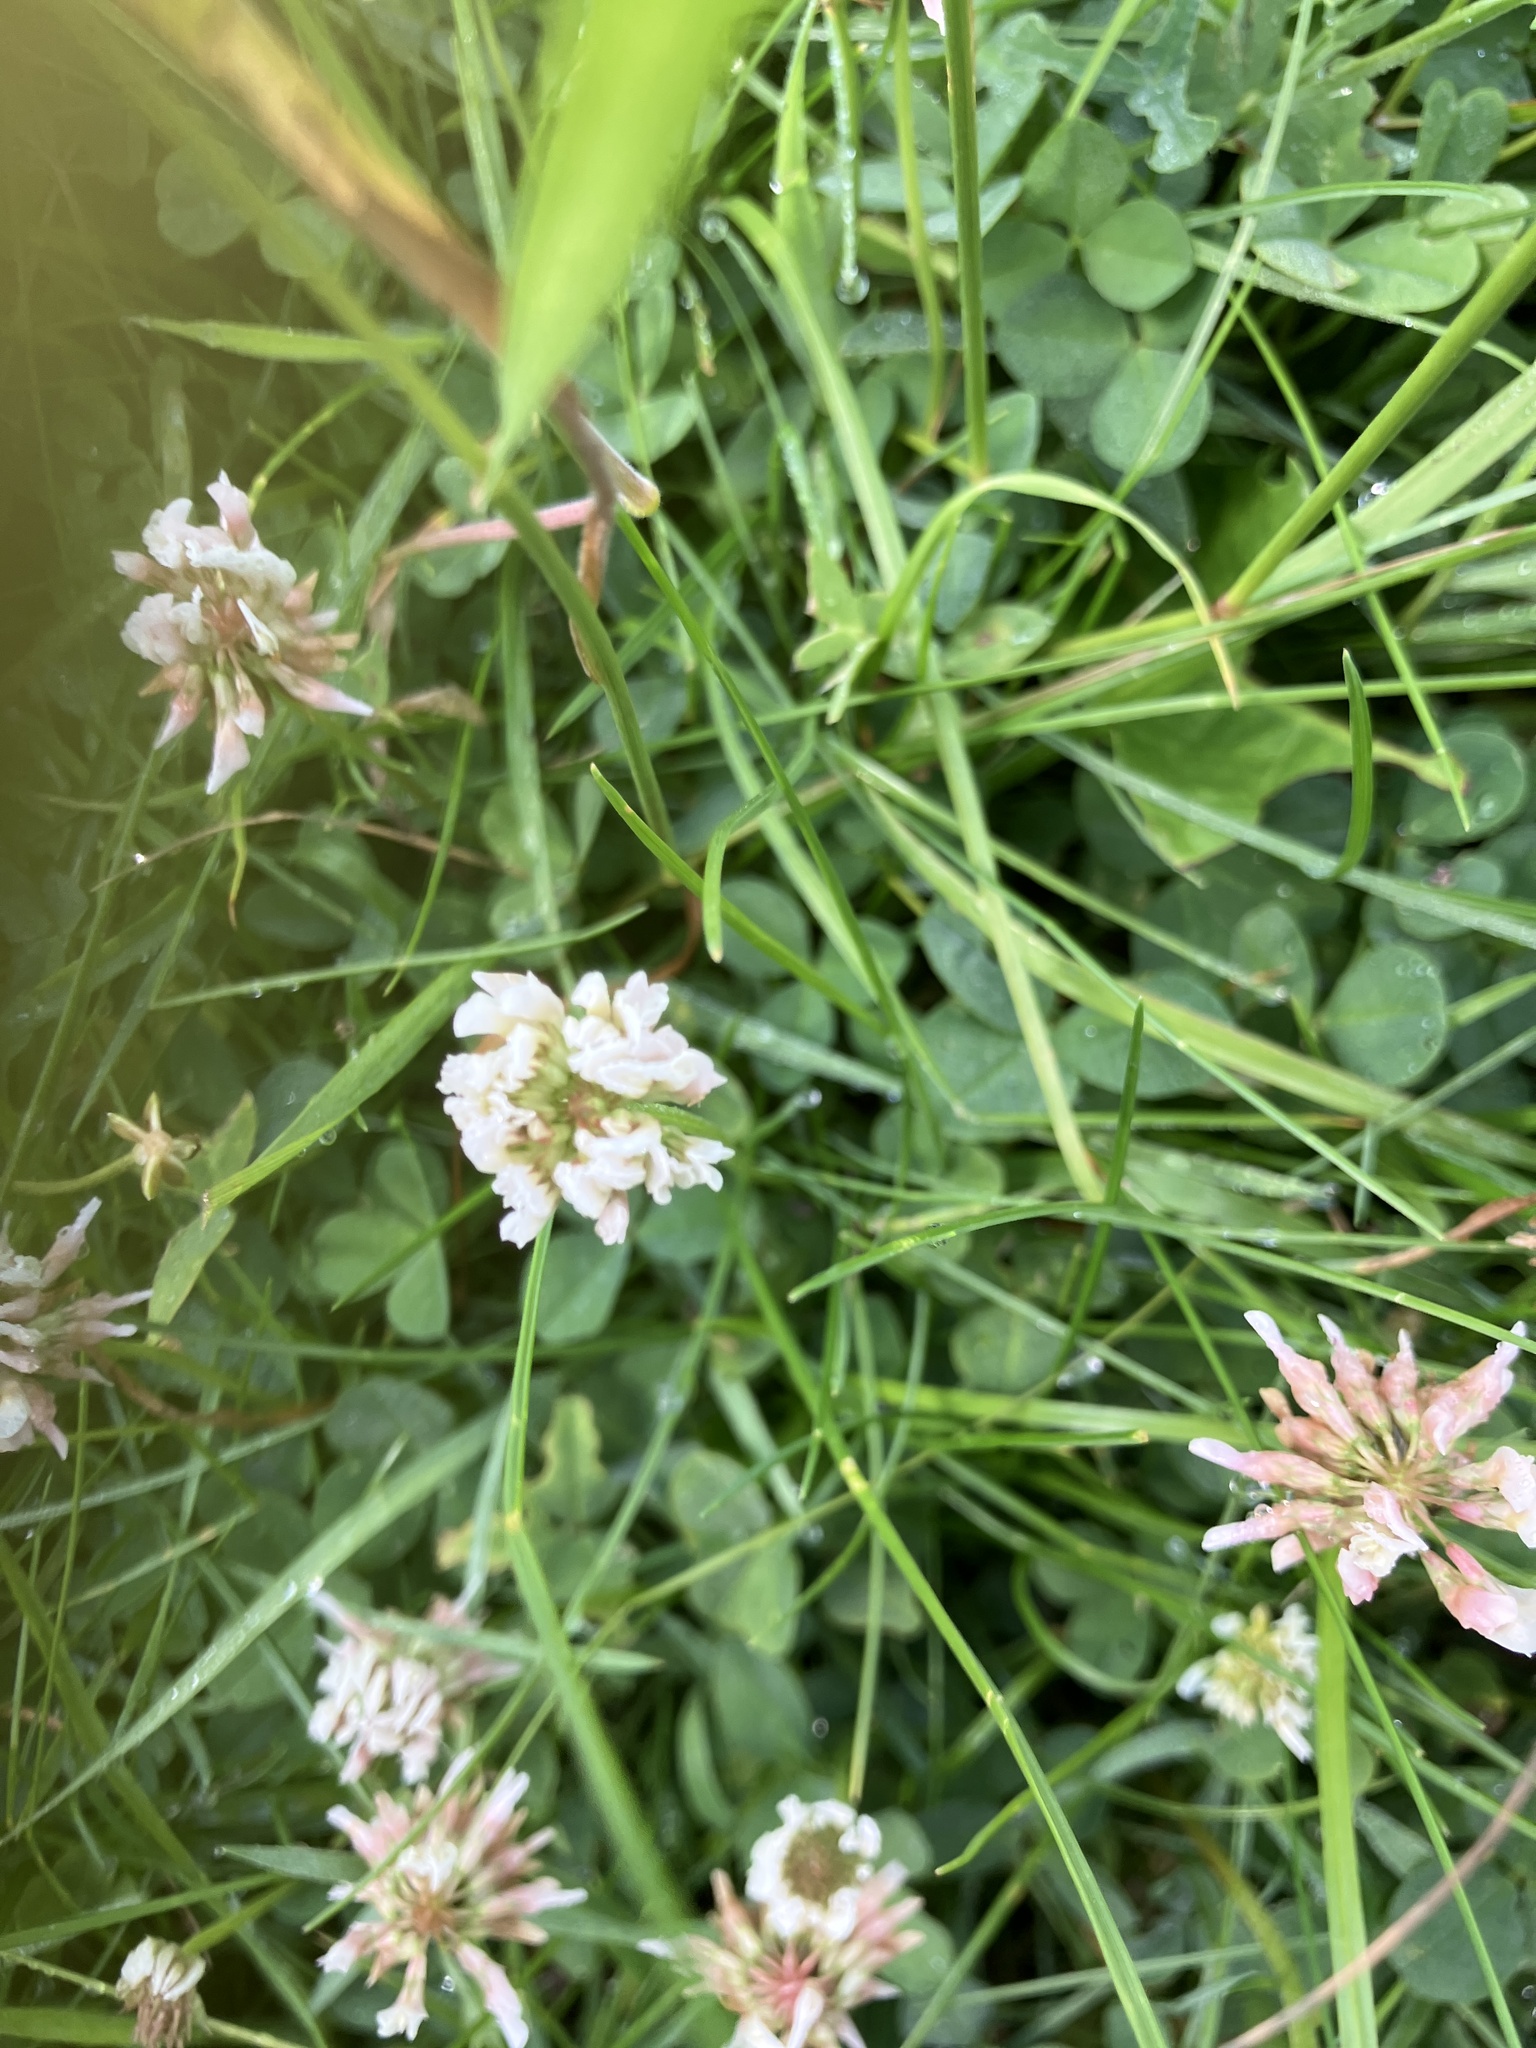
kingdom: Plantae
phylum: Tracheophyta
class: Magnoliopsida
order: Fabales
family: Fabaceae
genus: Trifolium
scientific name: Trifolium repens
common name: White clover
